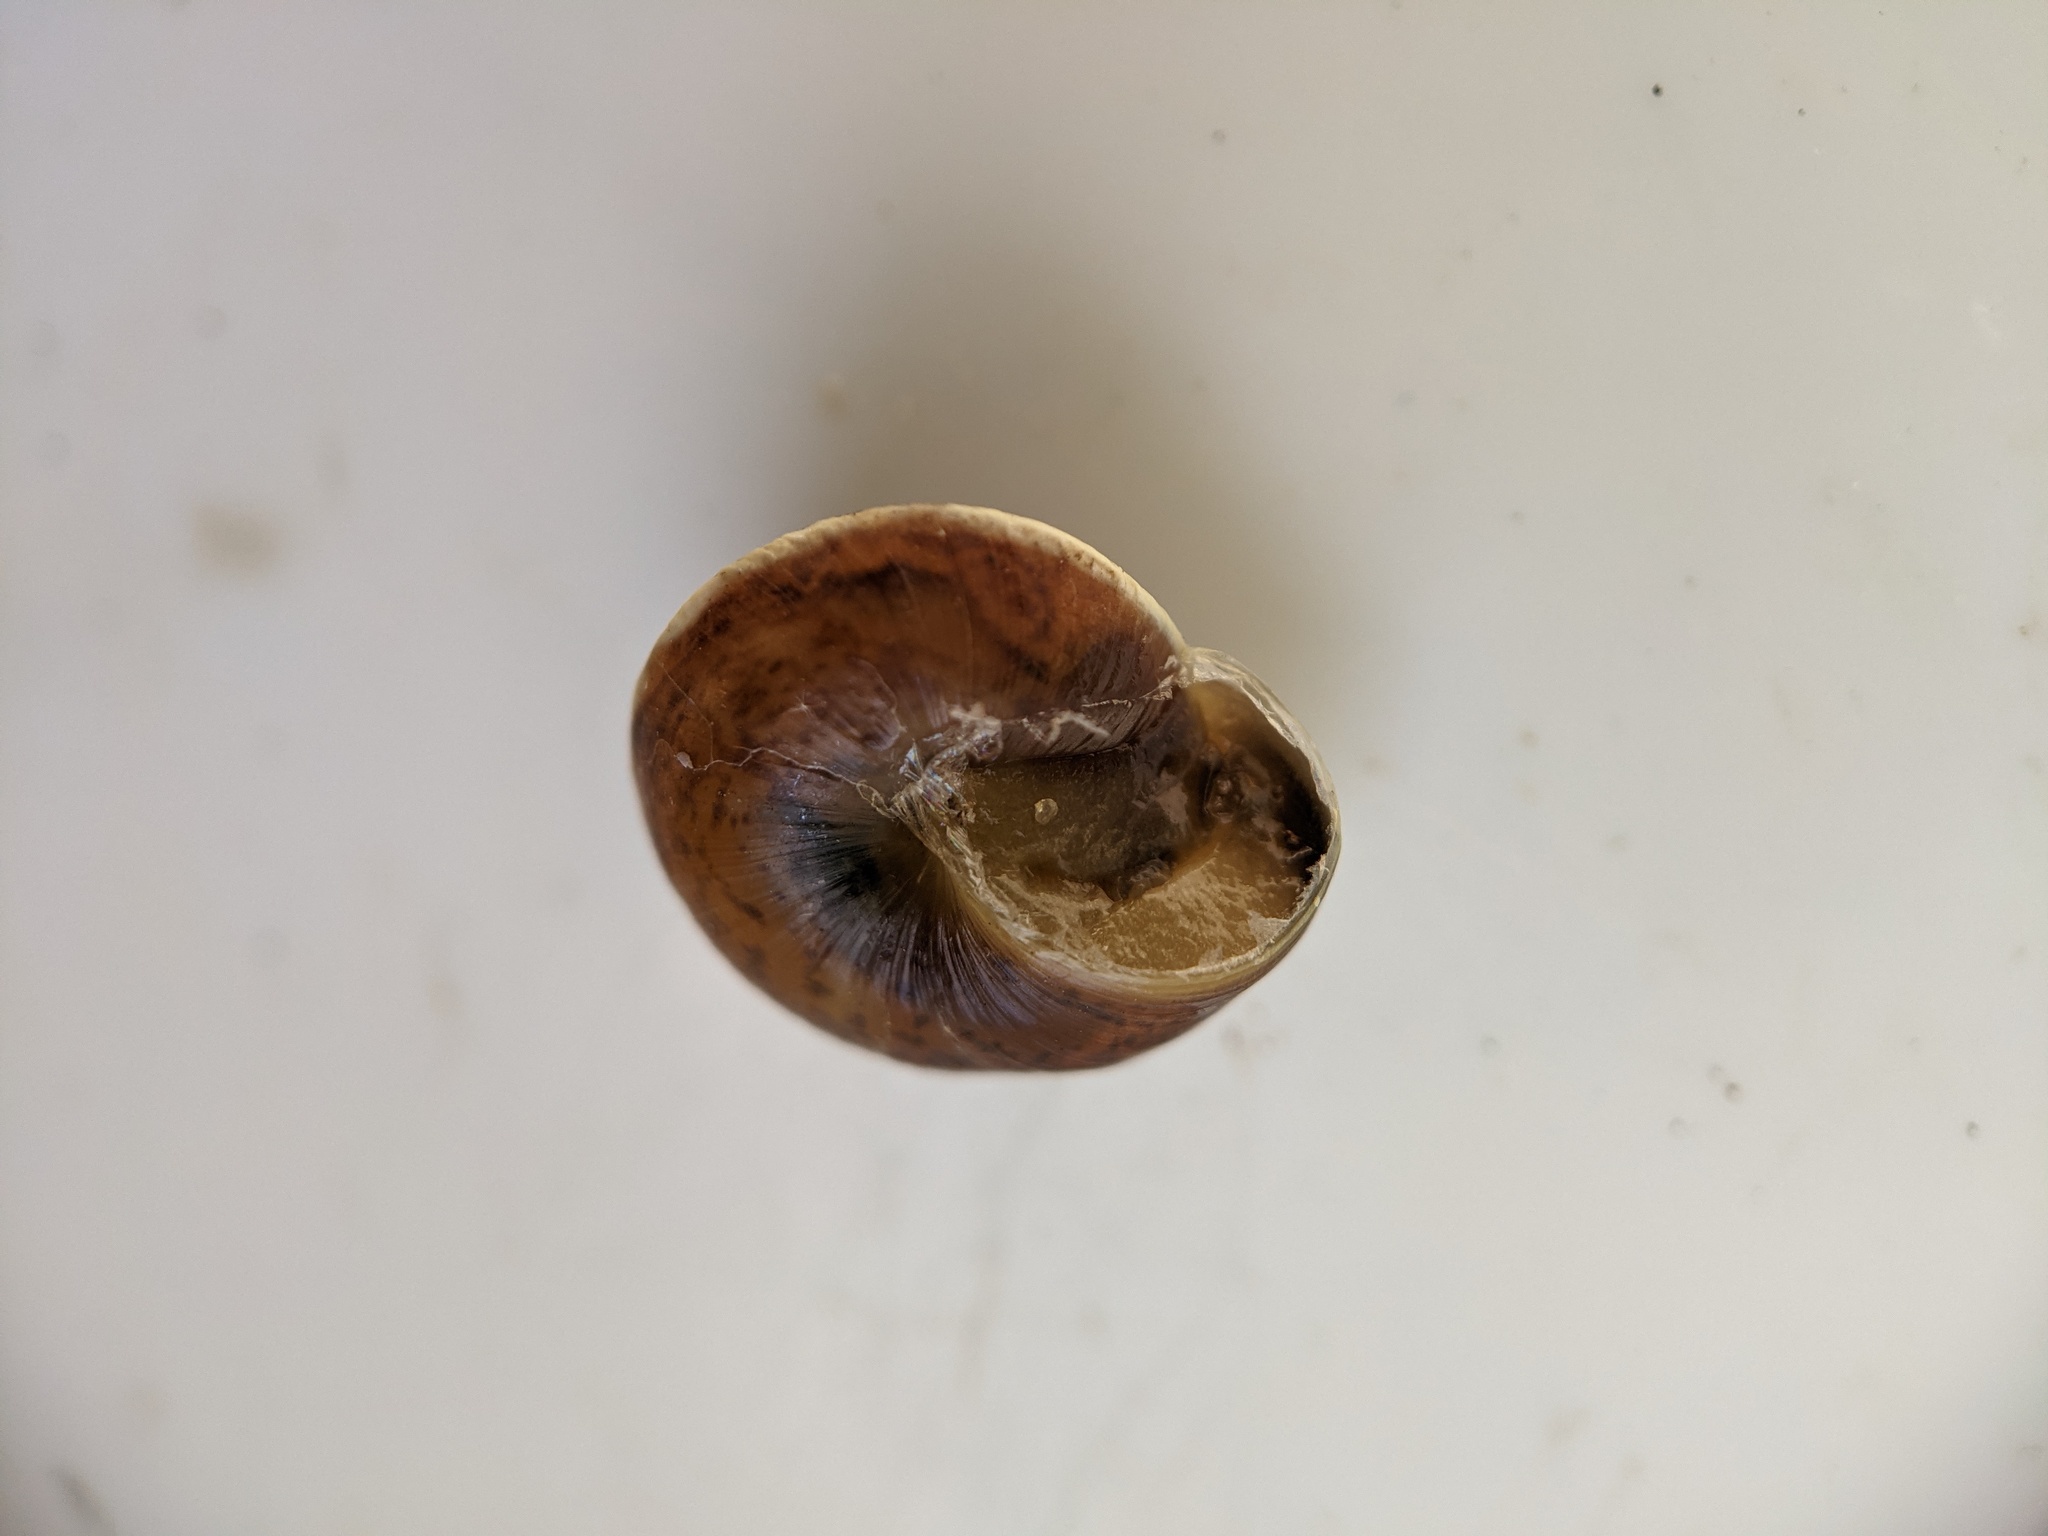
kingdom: Animalia
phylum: Mollusca
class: Gastropoda
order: Stylommatophora
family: Hygromiidae
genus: Hygromia
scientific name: Hygromia cinctella
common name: Girdled snail
